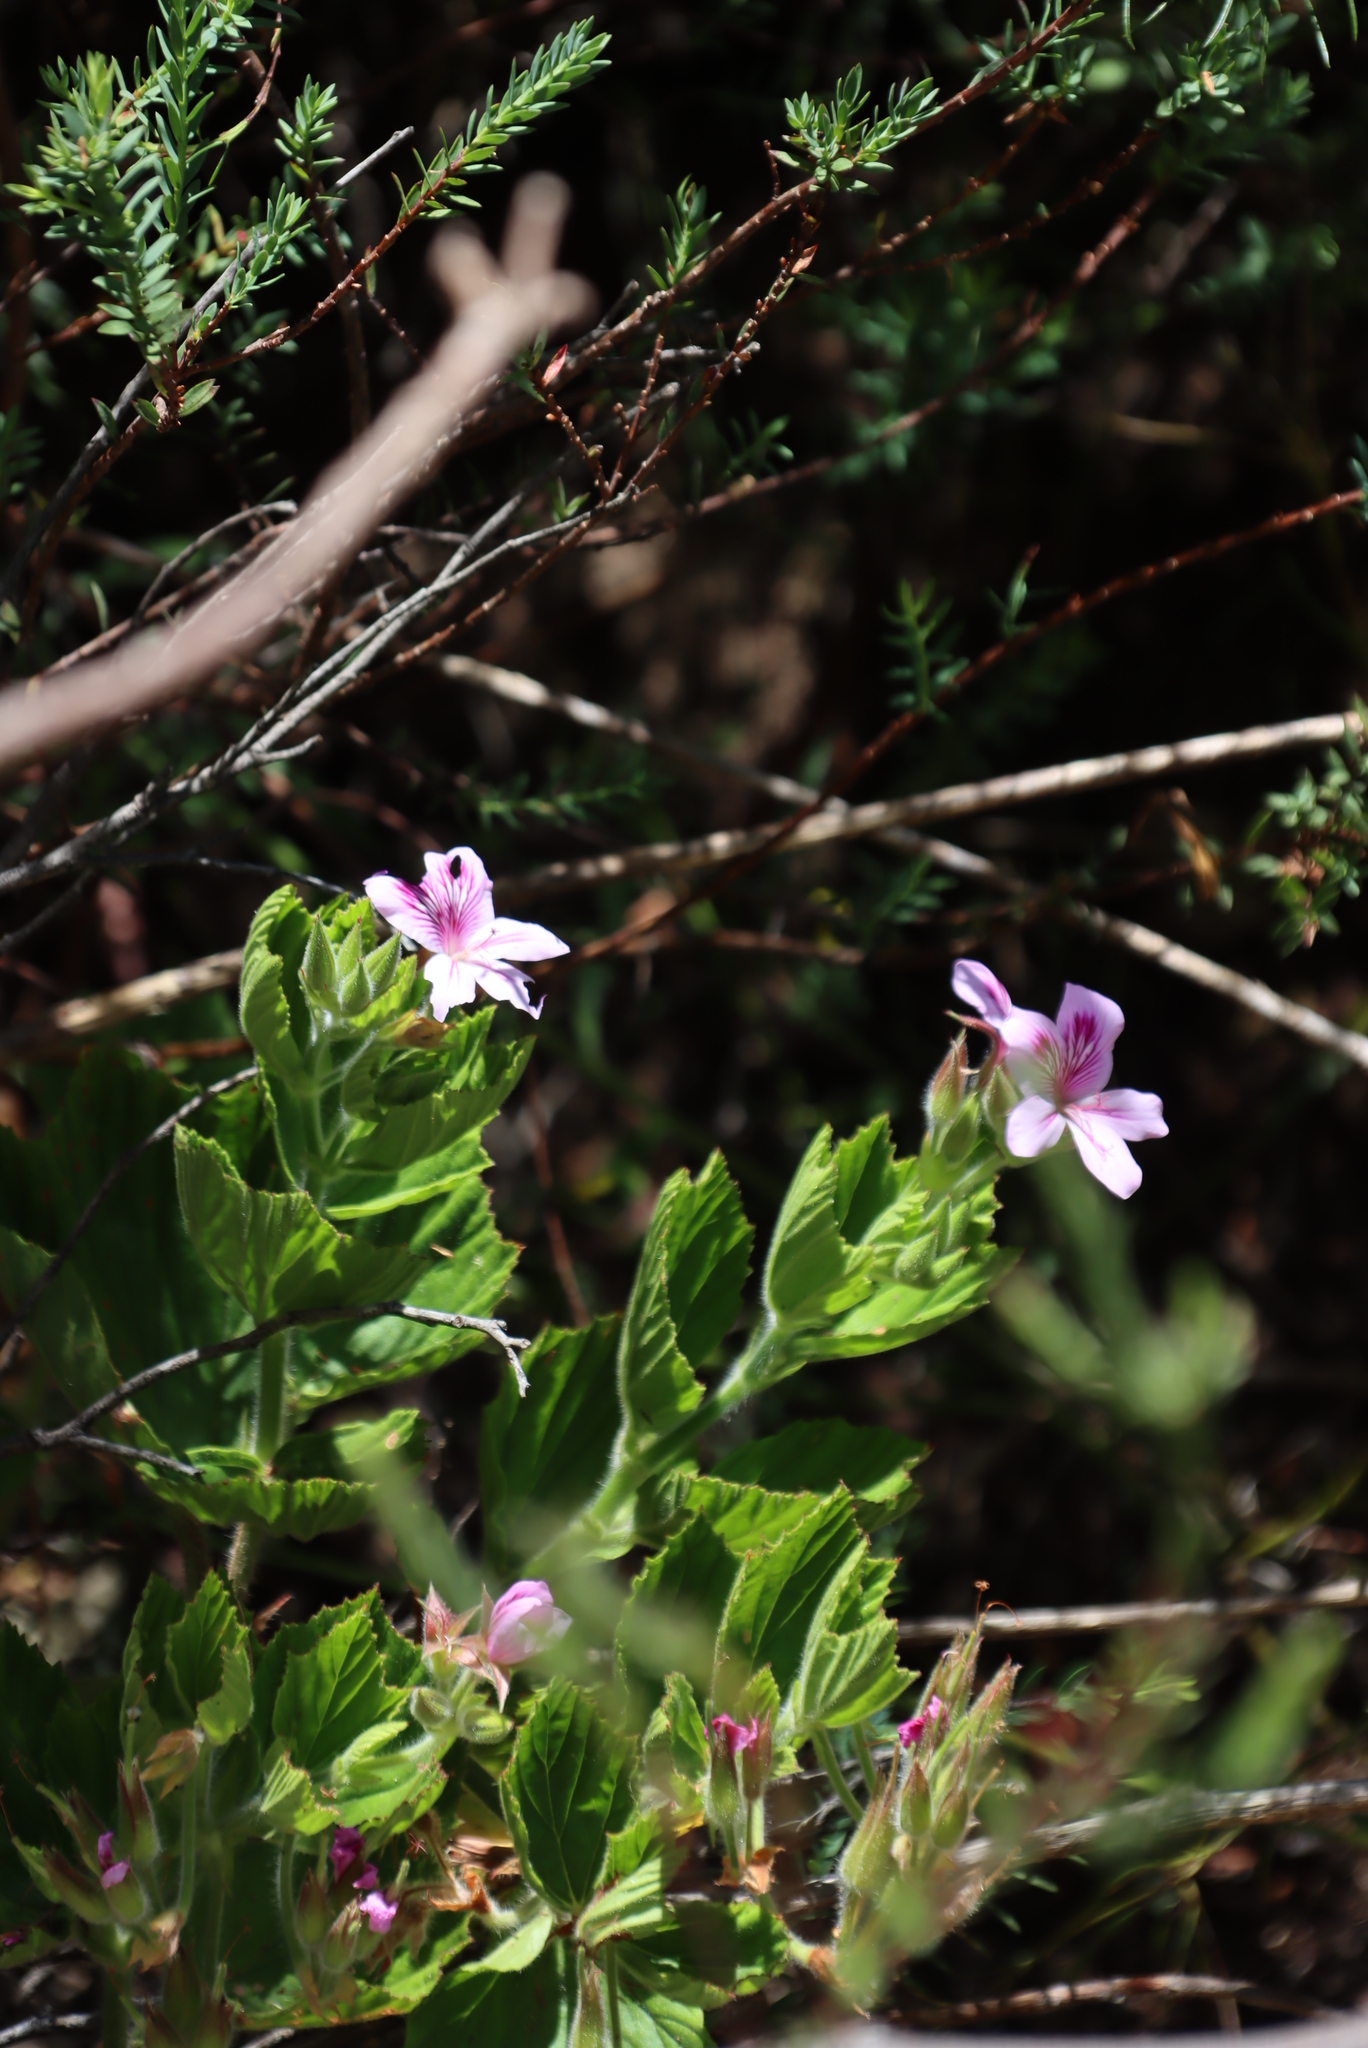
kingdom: Plantae
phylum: Tracheophyta
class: Magnoliopsida
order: Geraniales
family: Geraniaceae
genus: Pelargonium
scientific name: Pelargonium cucullatum
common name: Tree pelargonium
